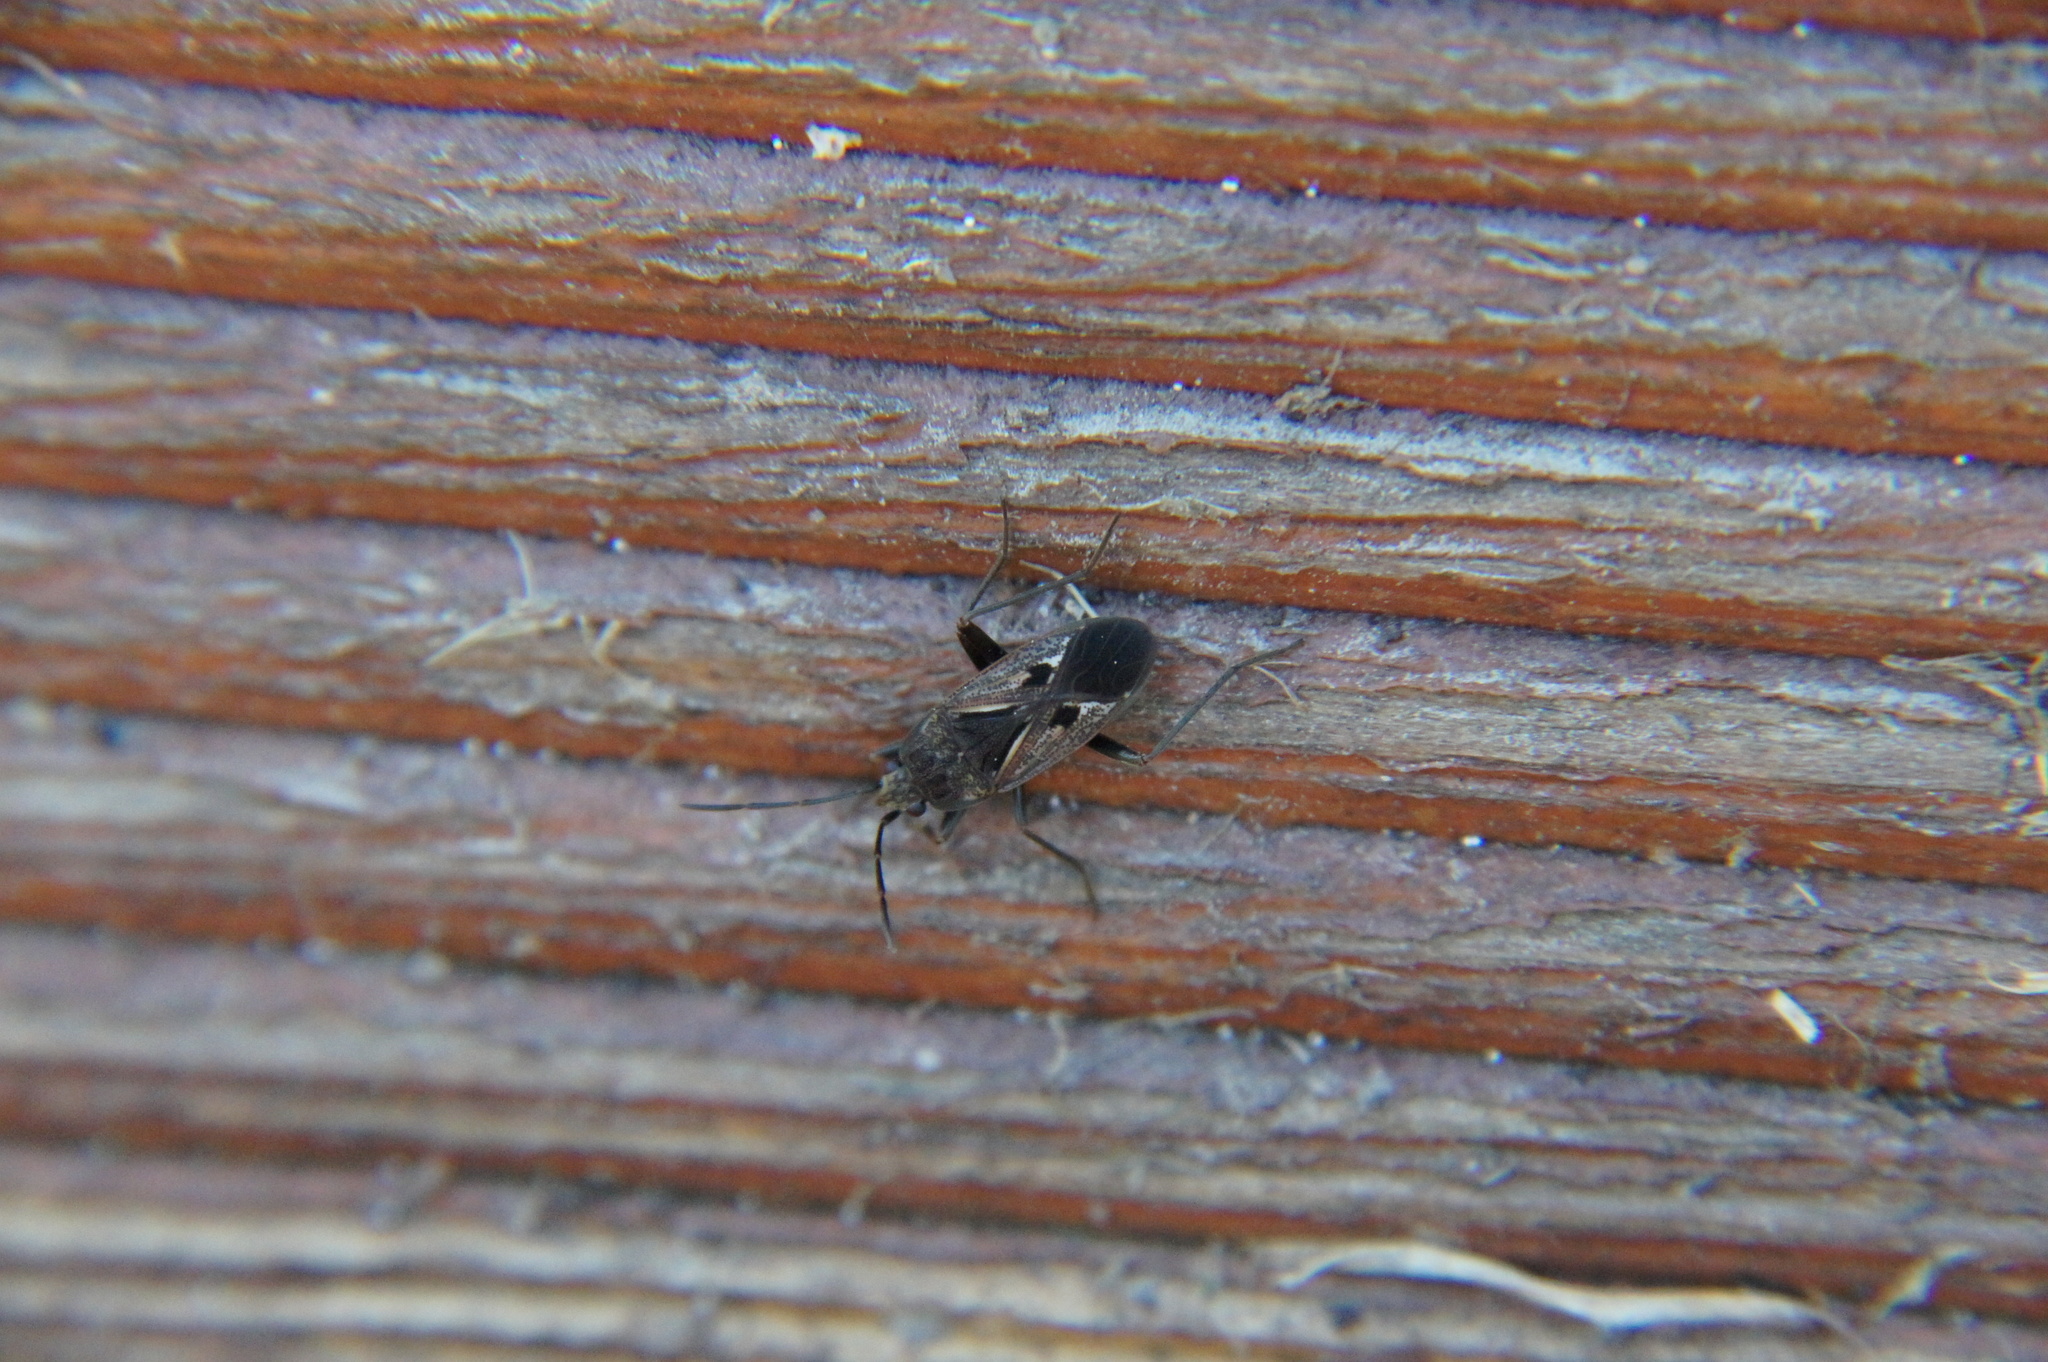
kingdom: Animalia
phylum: Arthropoda
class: Insecta
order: Hemiptera
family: Rhyparochromidae
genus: Rhyparochromus
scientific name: Rhyparochromus pini
